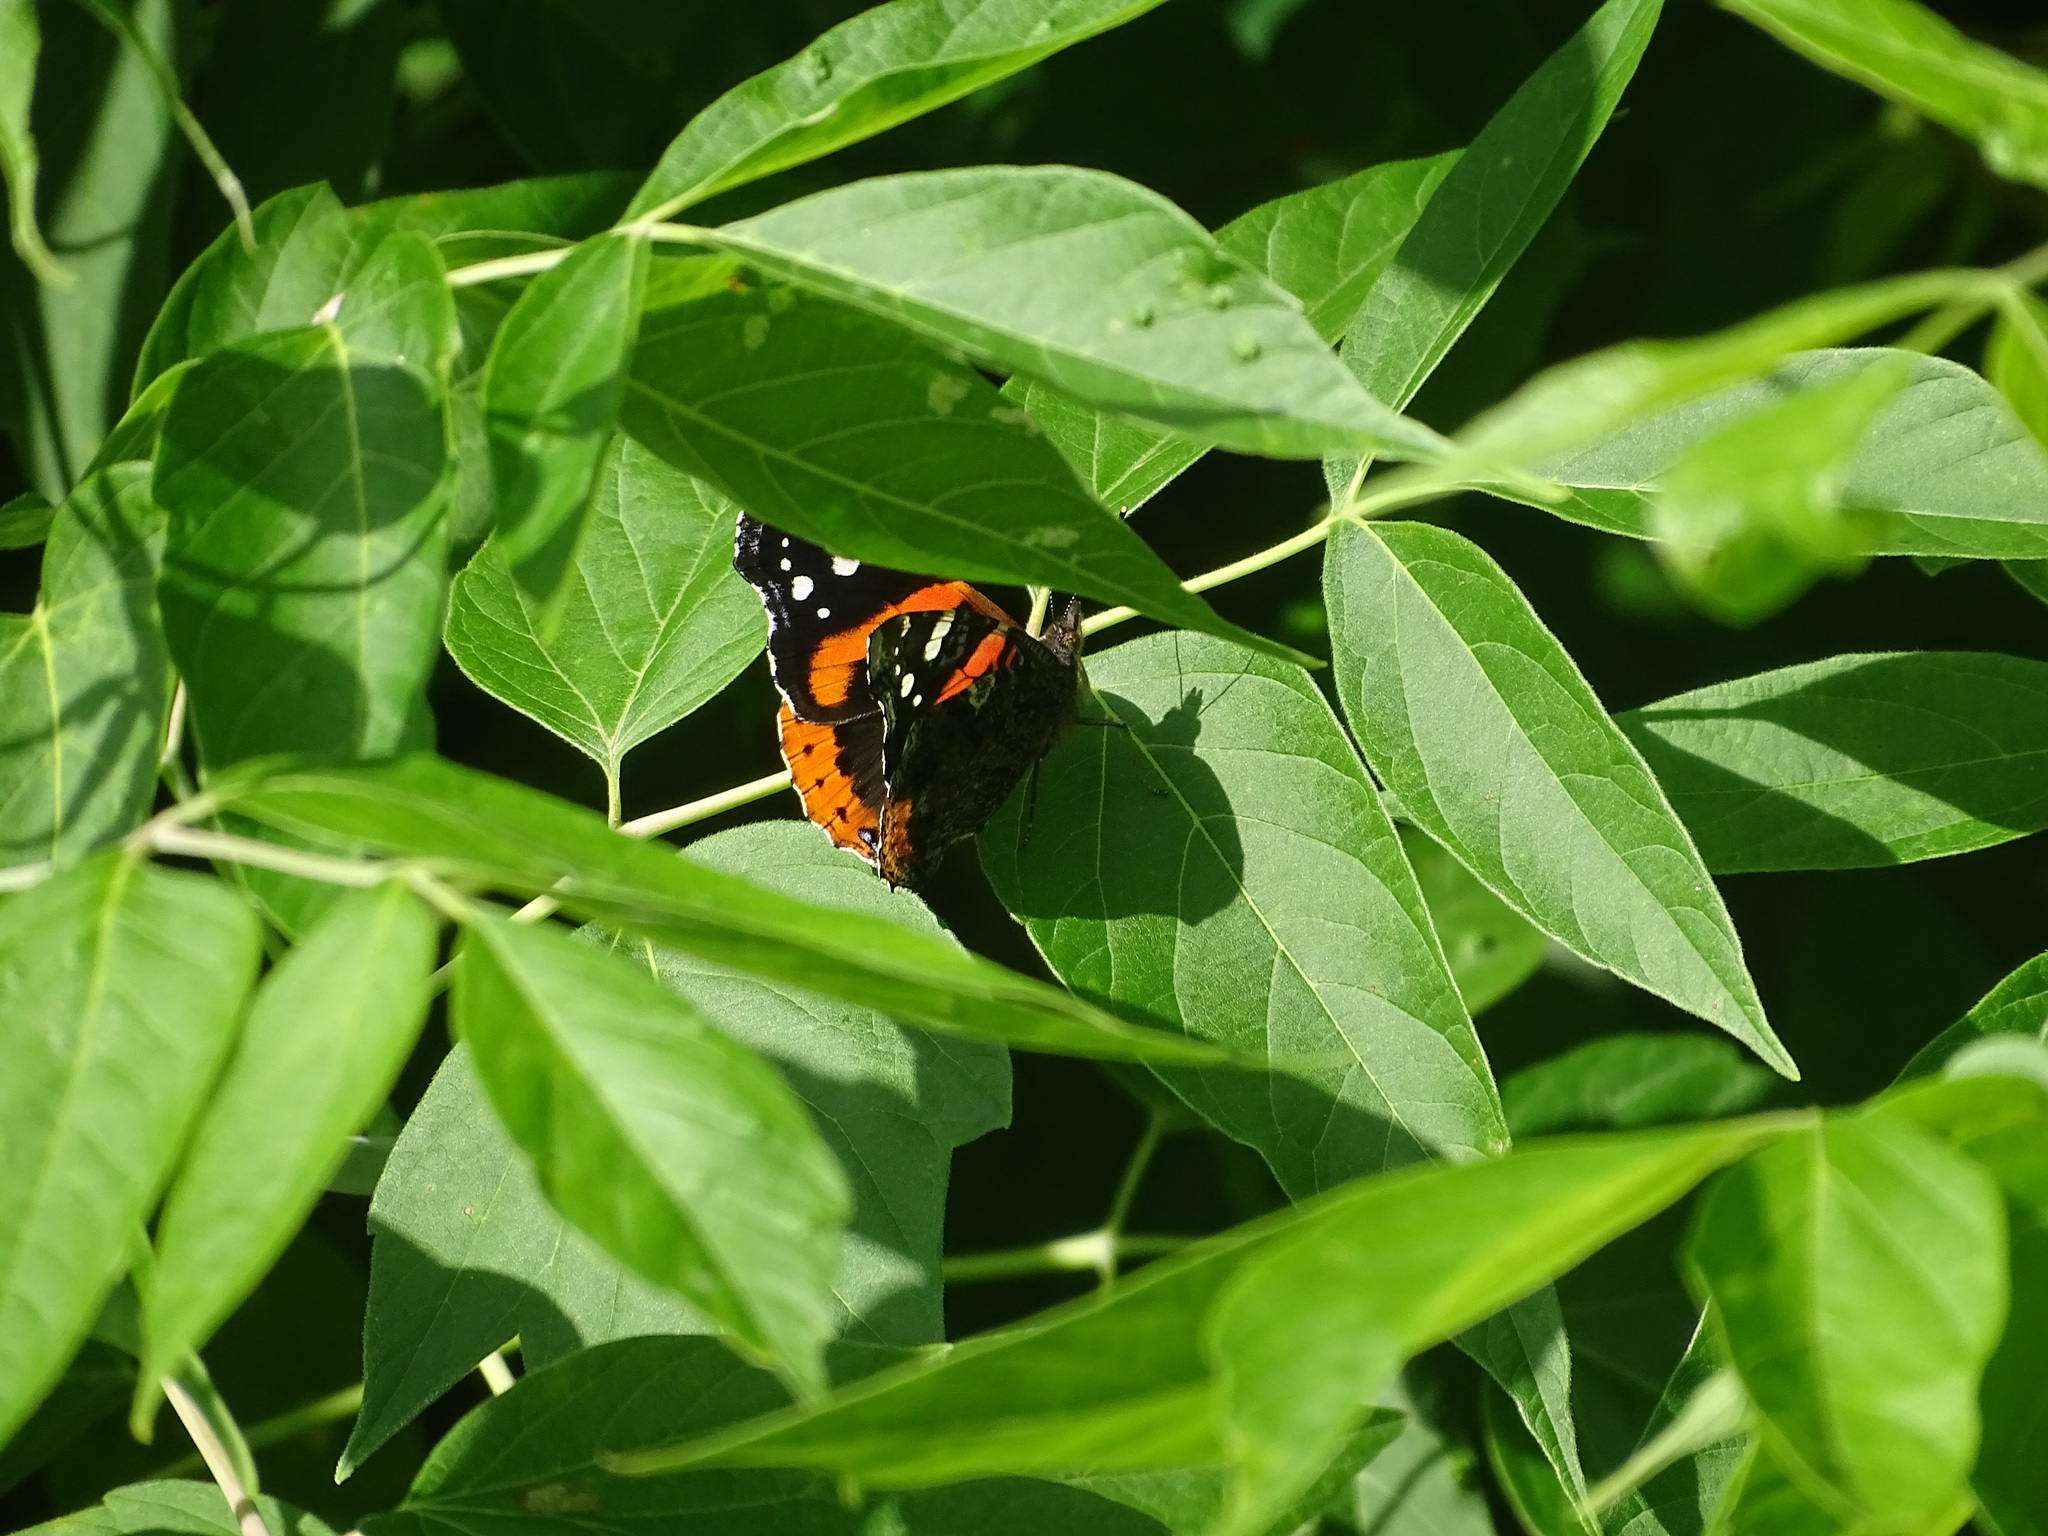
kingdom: Animalia
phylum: Arthropoda
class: Insecta
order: Lepidoptera
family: Nymphalidae
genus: Vanessa
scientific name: Vanessa atalanta
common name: Red admiral
